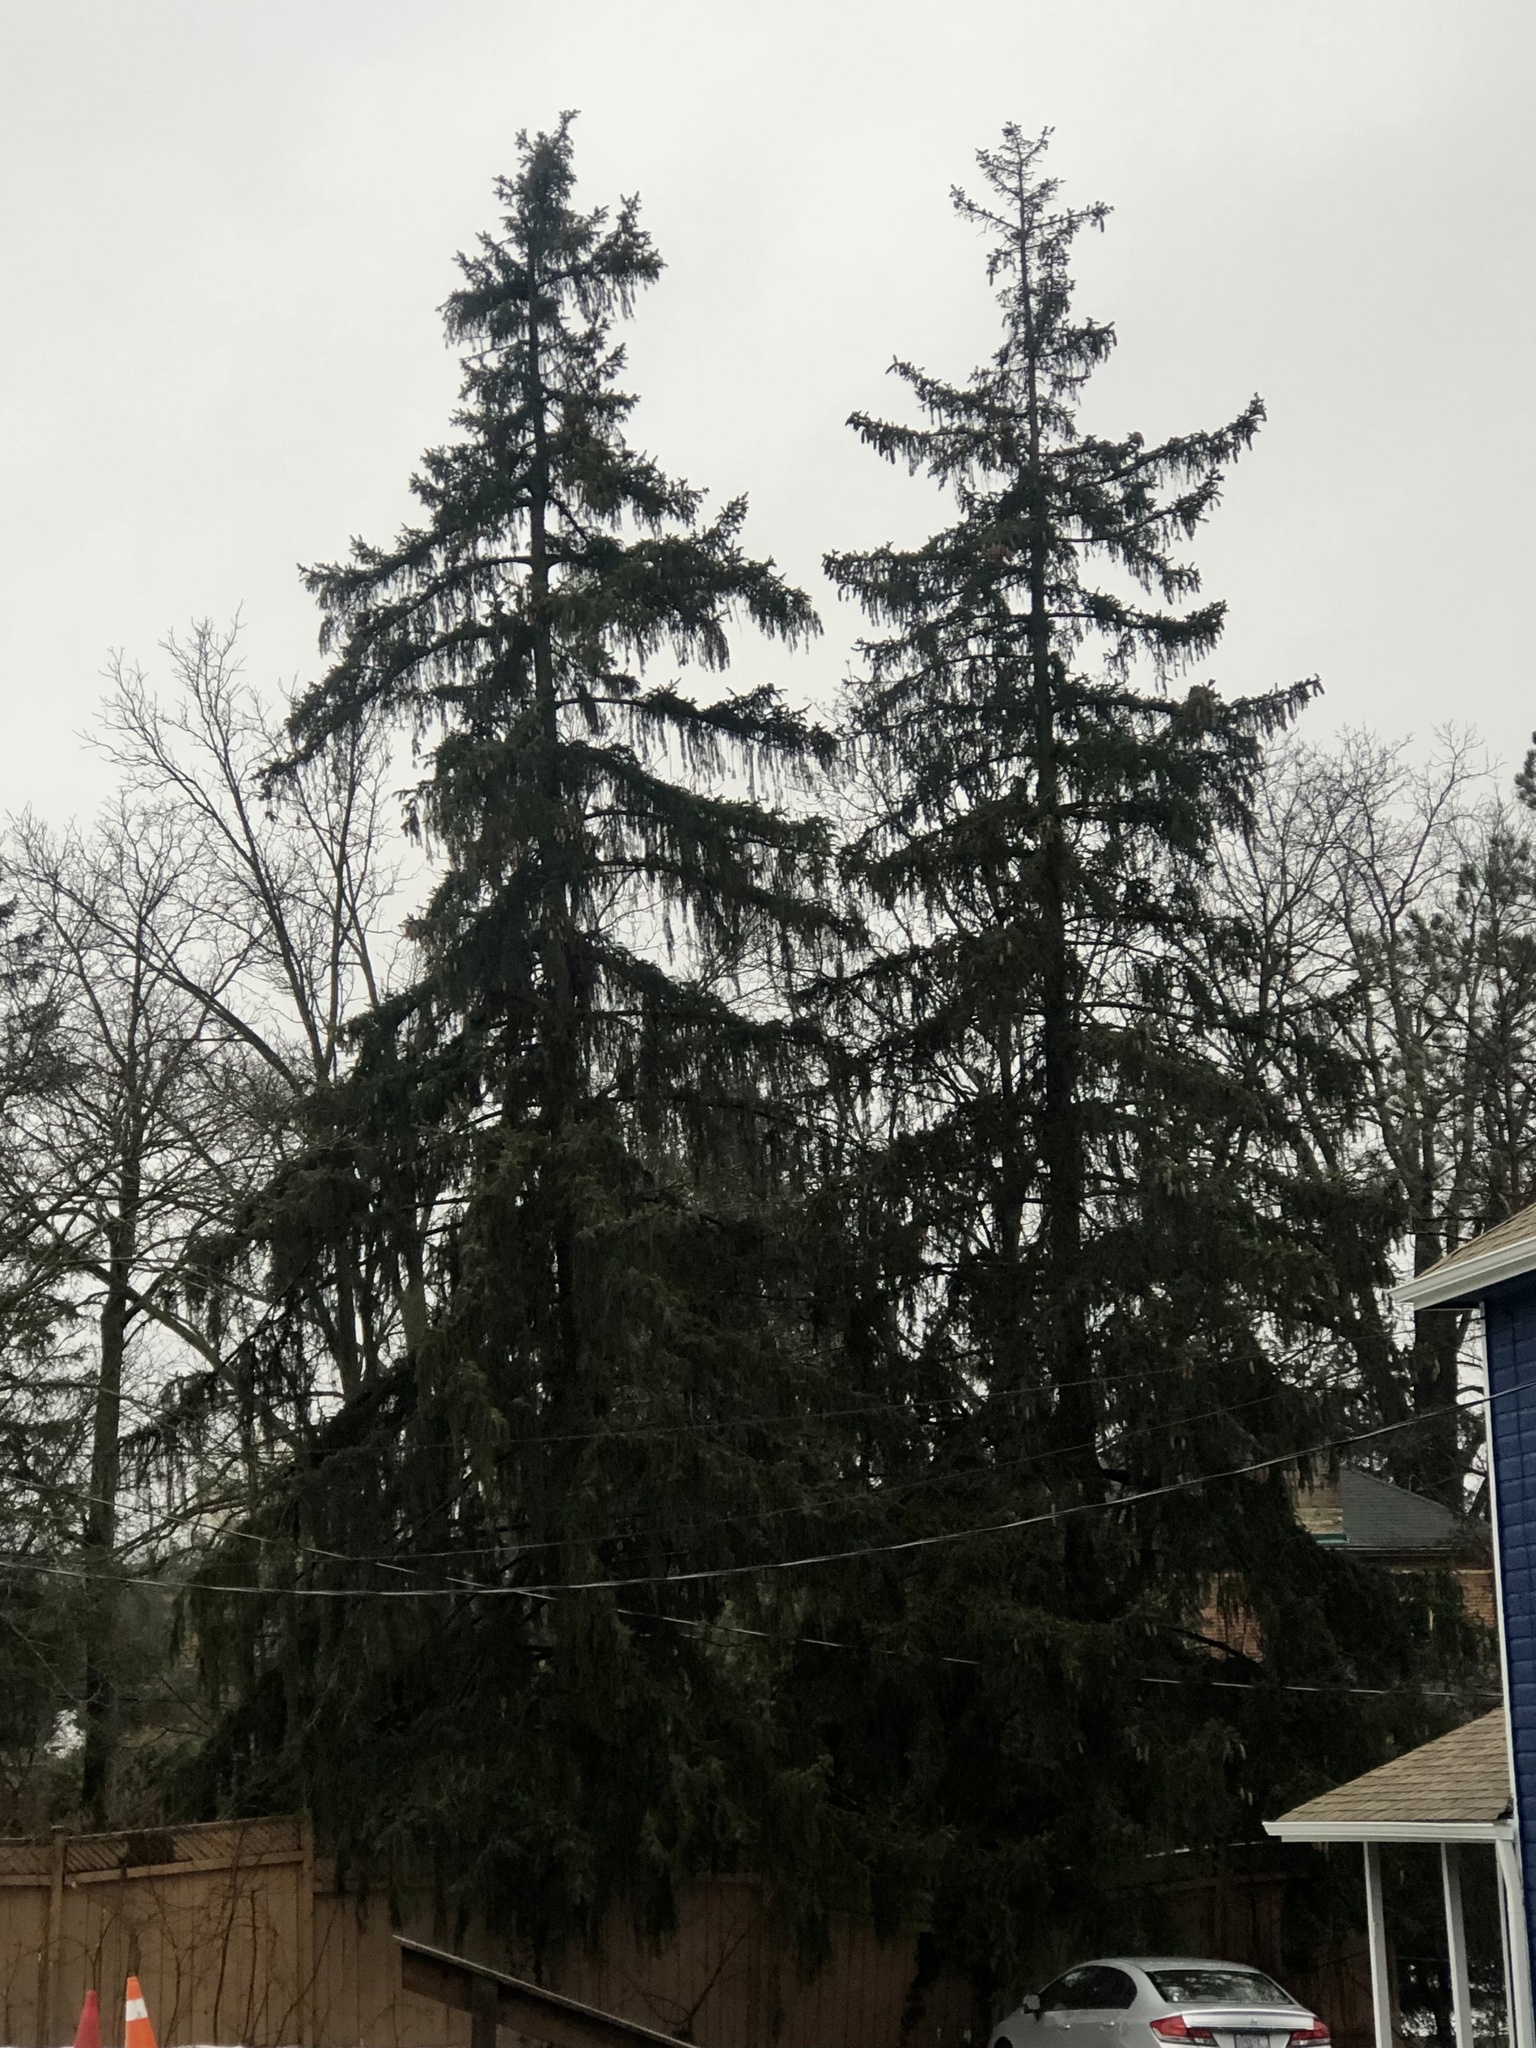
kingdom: Plantae
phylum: Tracheophyta
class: Pinopsida
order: Pinales
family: Pinaceae
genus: Picea
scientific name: Picea abies
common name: Norway spruce
